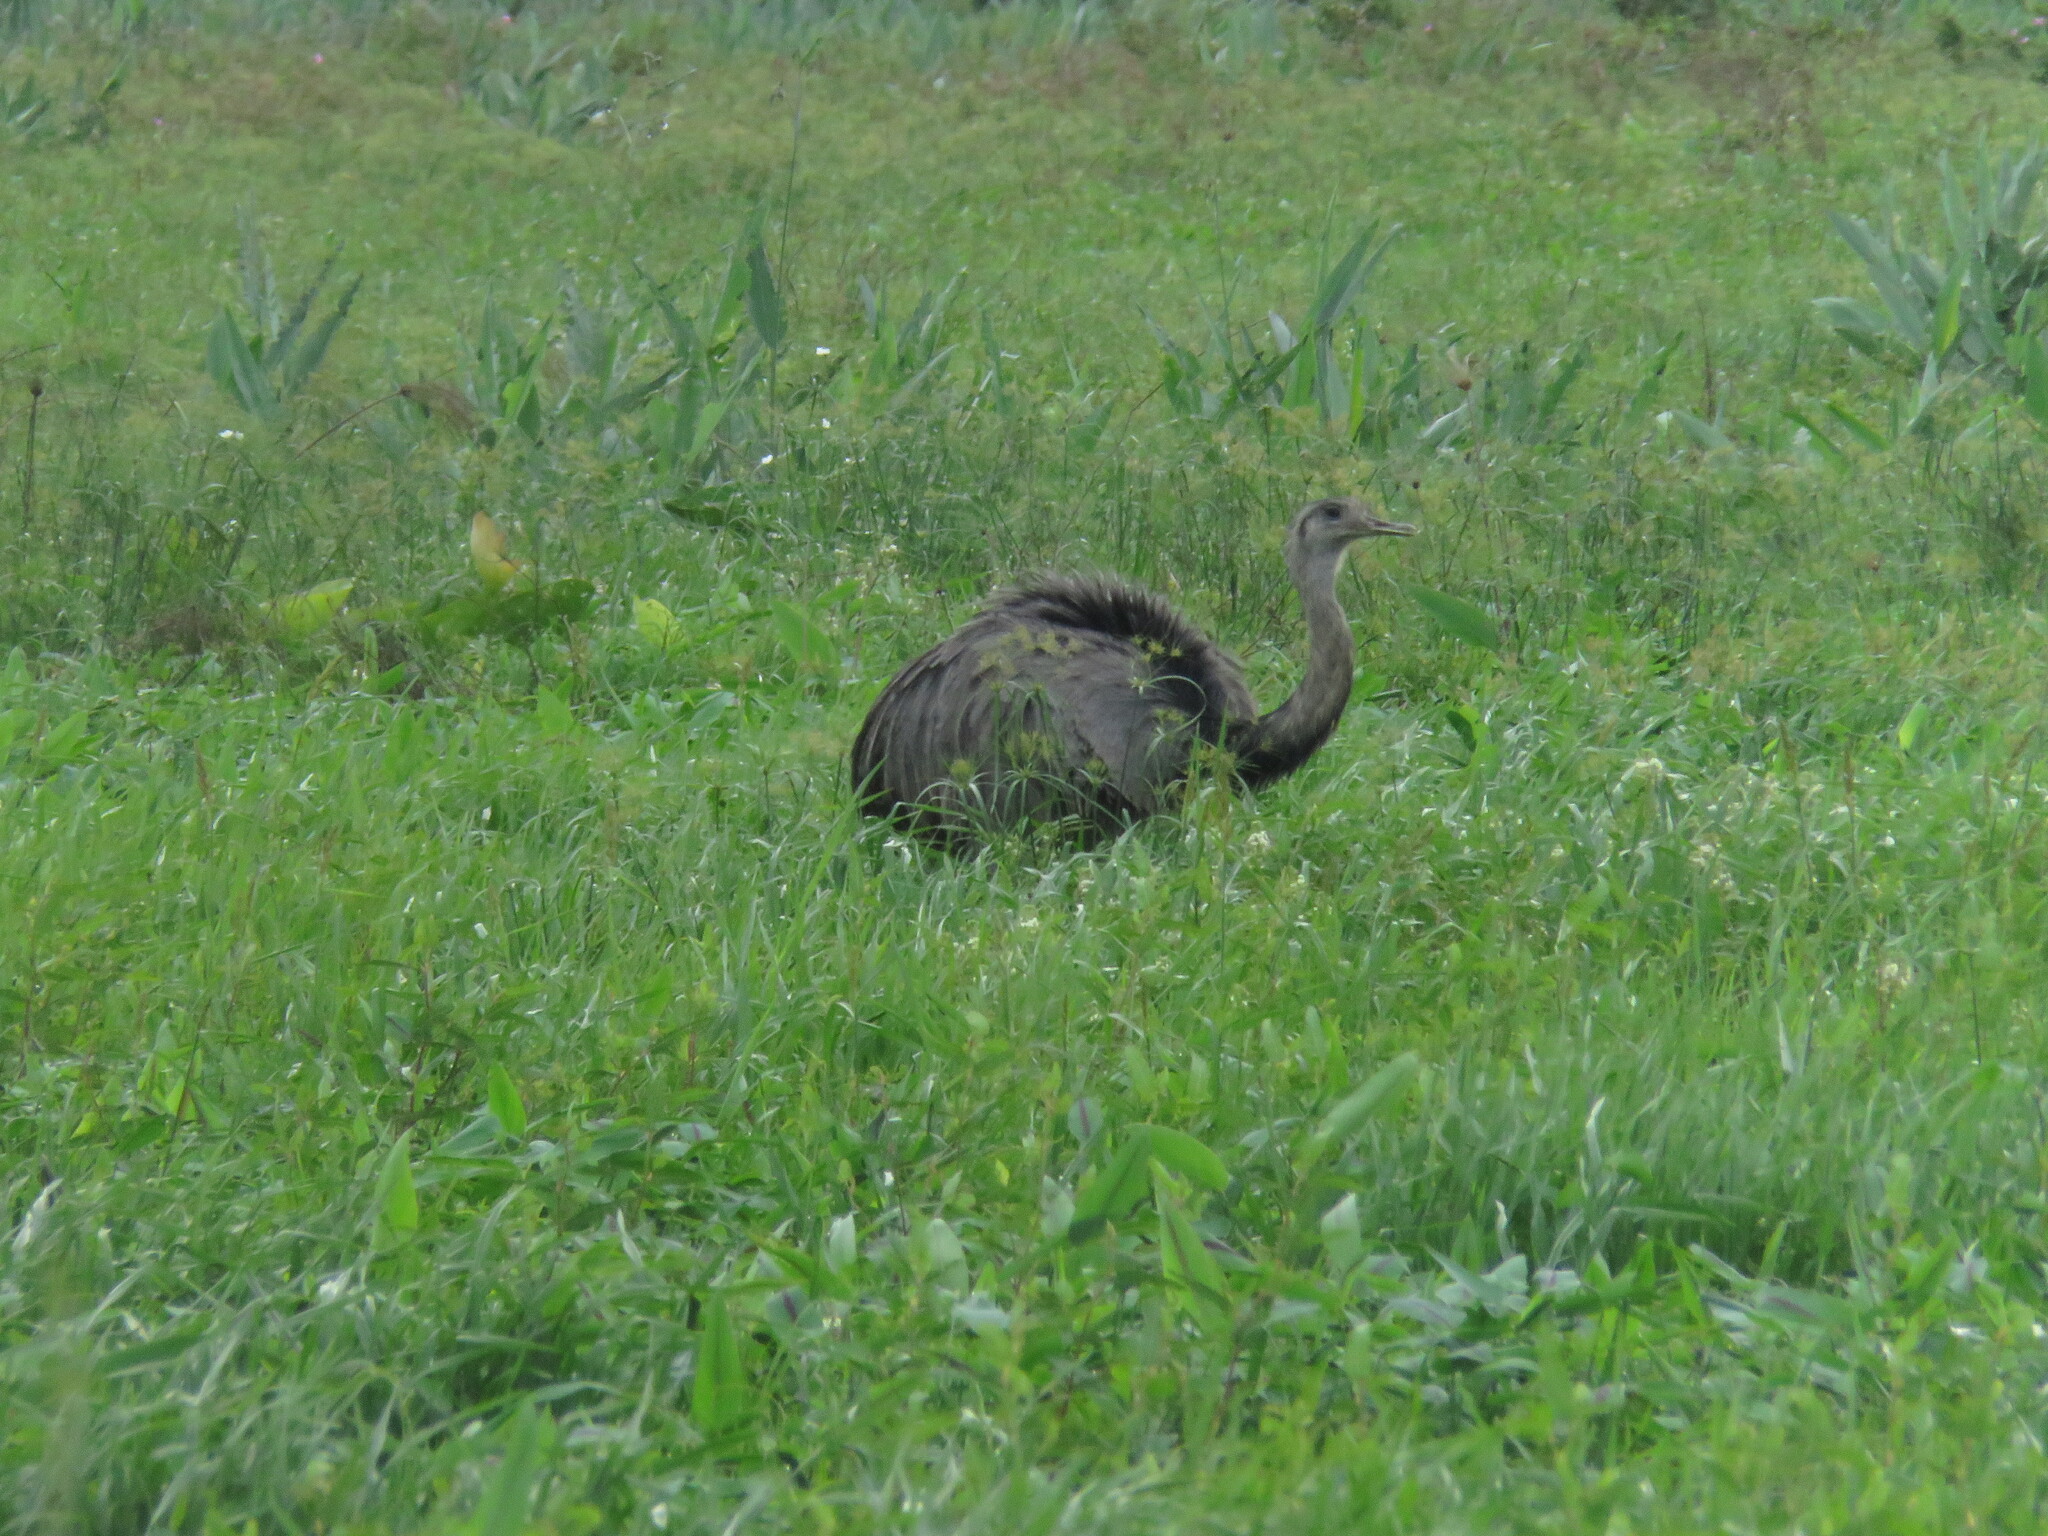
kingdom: Animalia
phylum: Chordata
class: Aves
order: Rheiformes
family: Rheidae
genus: Rhea
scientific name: Rhea americana
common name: Greater rhea
